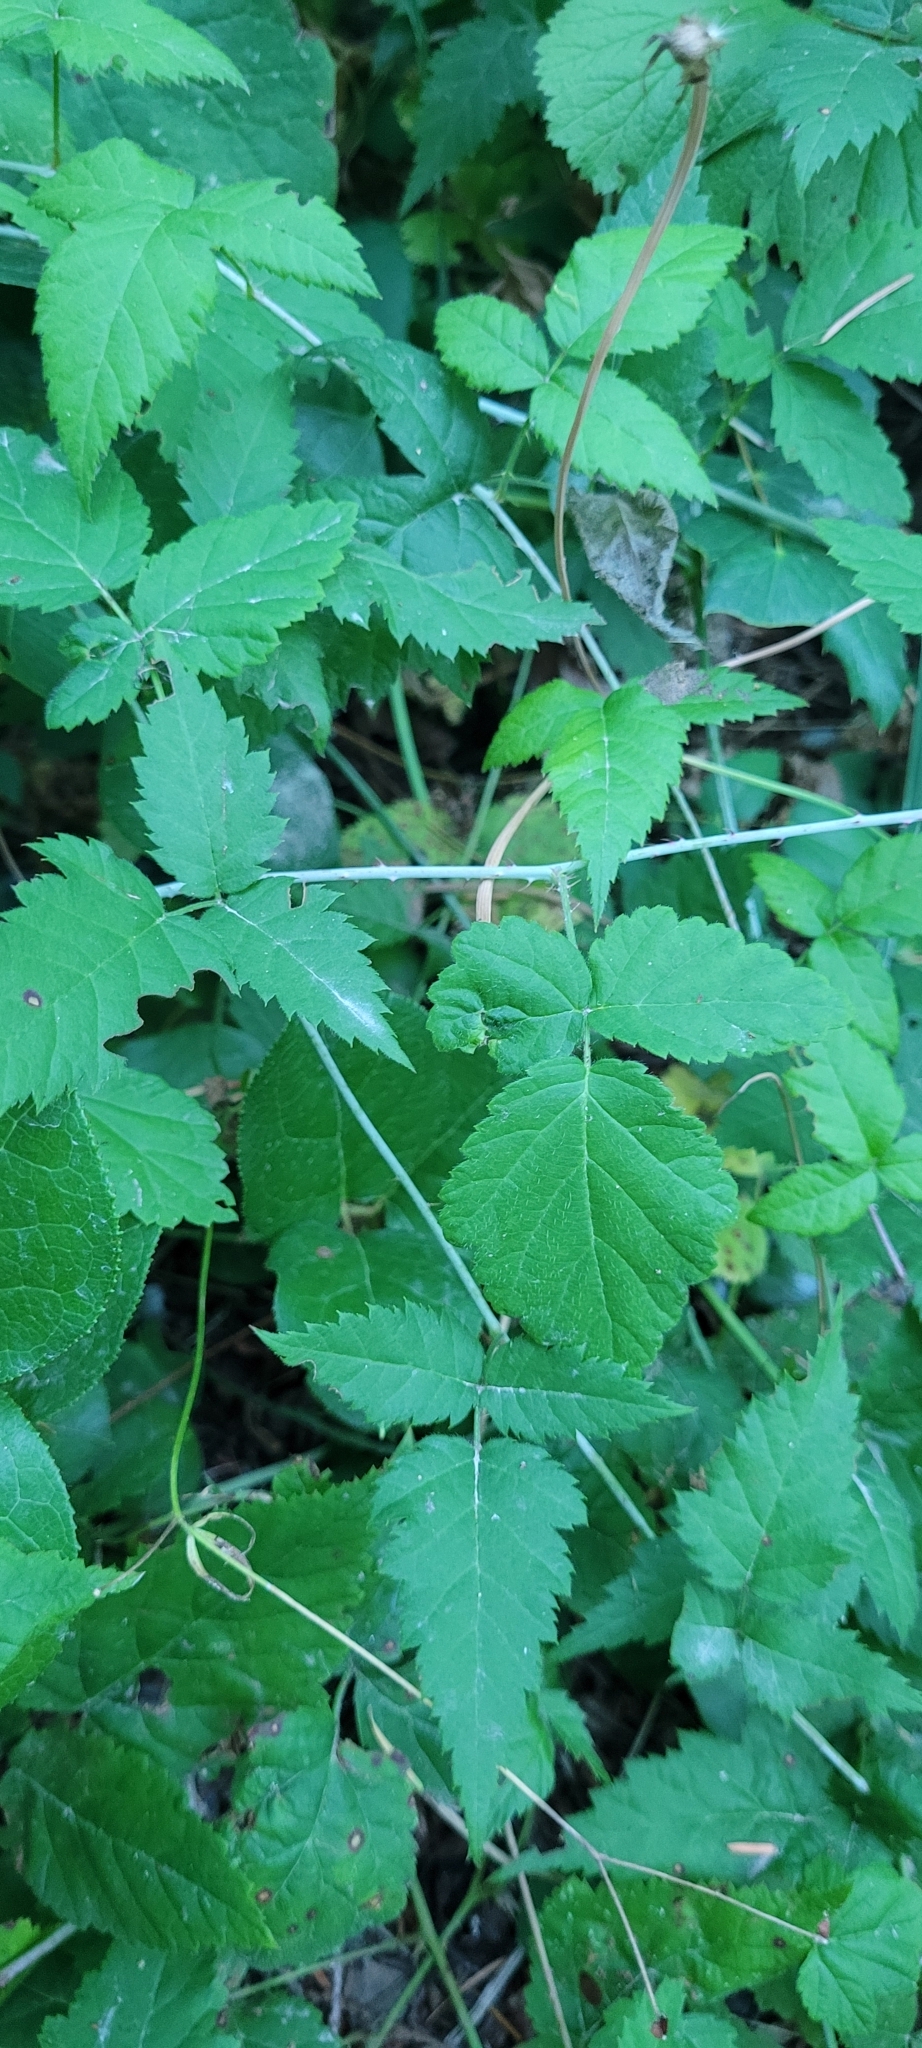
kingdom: Plantae
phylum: Tracheophyta
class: Magnoliopsida
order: Rosales
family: Rosaceae
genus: Rubus
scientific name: Rubus ursinus
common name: Pacific blackberry
